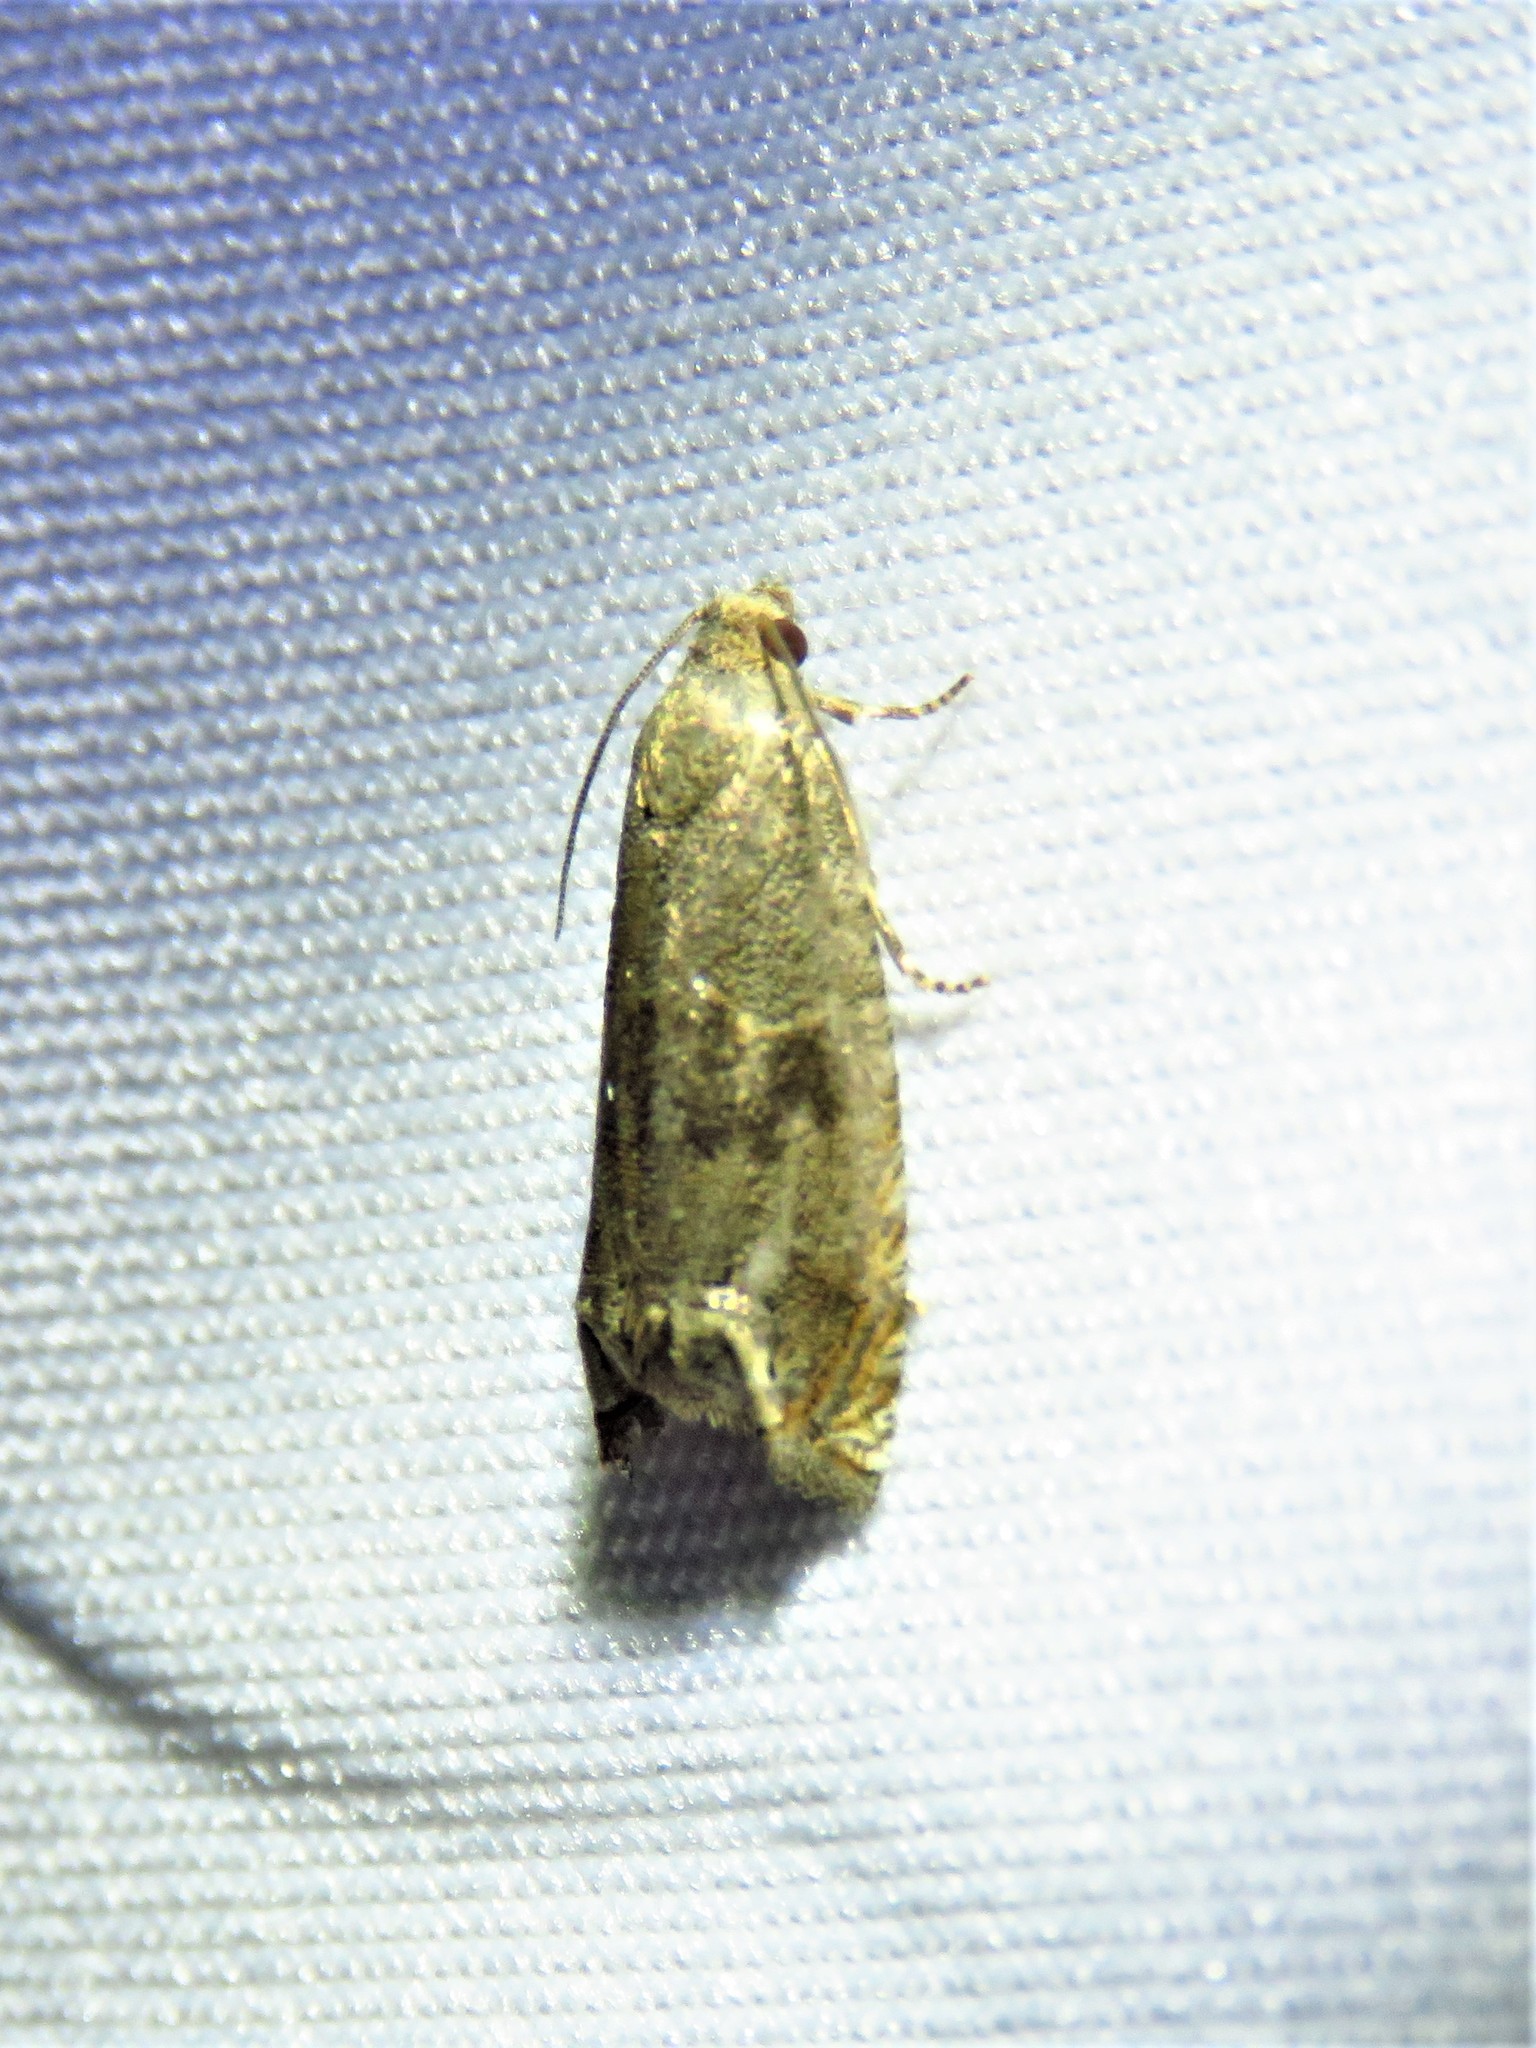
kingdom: Animalia
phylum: Arthropoda
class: Insecta
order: Lepidoptera
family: Tortricidae
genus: Epiblema
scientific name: Epiblema strenuana
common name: Ragweed borer moth
